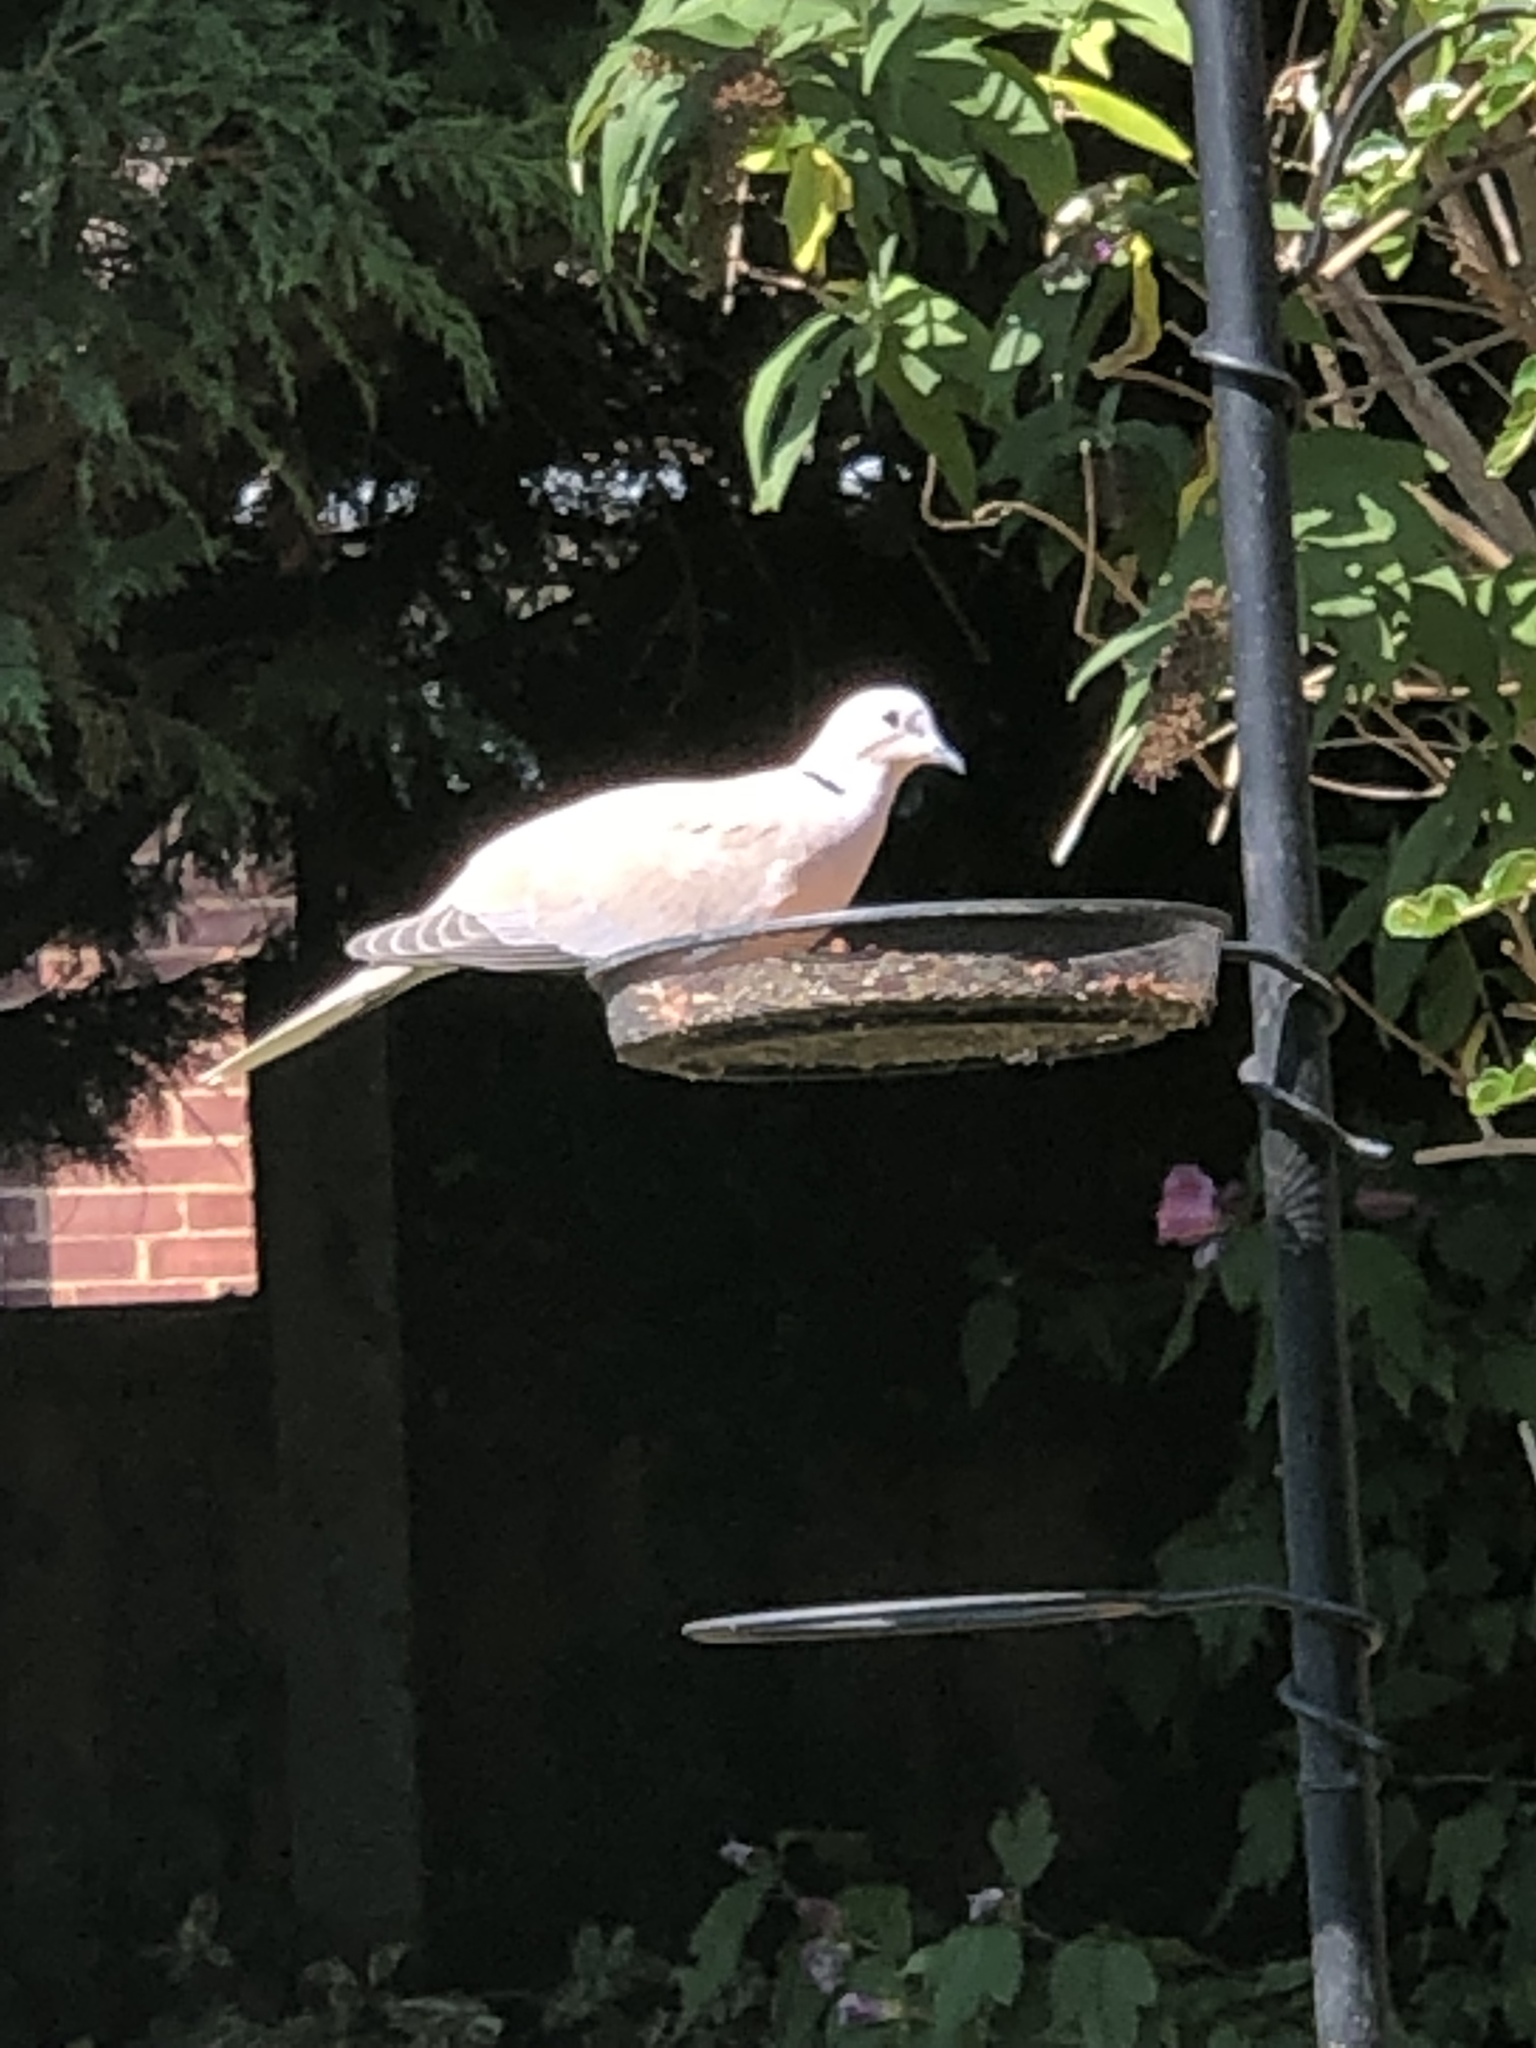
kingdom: Animalia
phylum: Chordata
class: Aves
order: Columbiformes
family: Columbidae
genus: Streptopelia
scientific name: Streptopelia decaocto
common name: Eurasian collared dove
